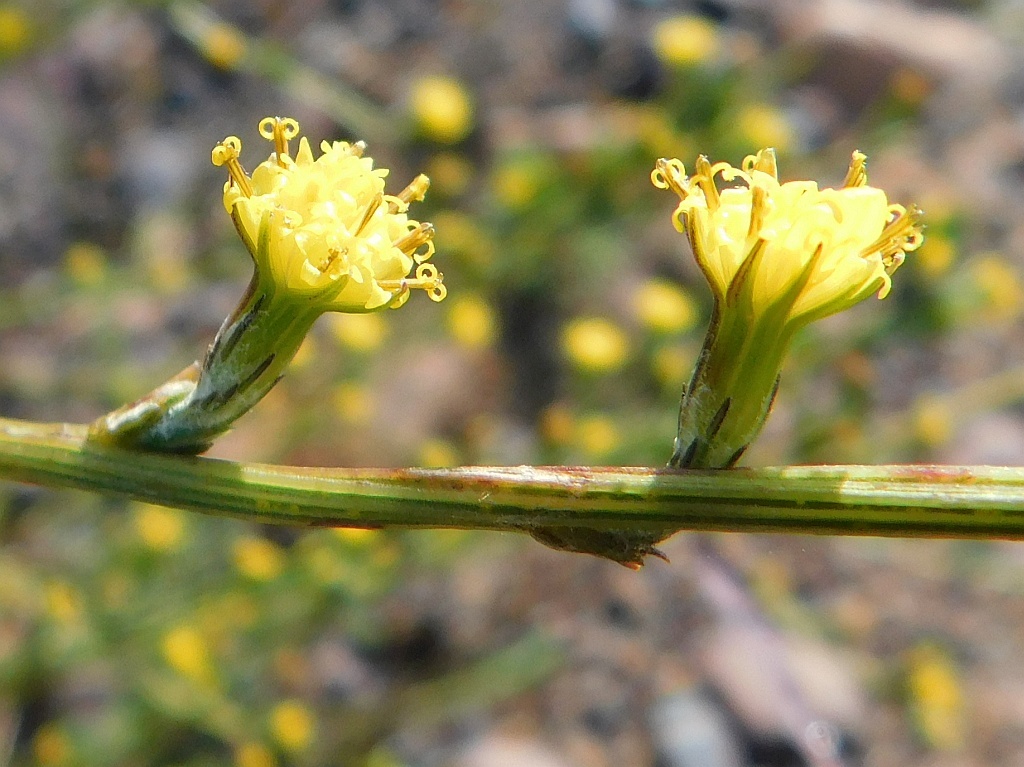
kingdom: Plantae
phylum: Tracheophyta
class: Magnoliopsida
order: Asterales
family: Asteraceae
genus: Senecio
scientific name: Senecio pubigerus
